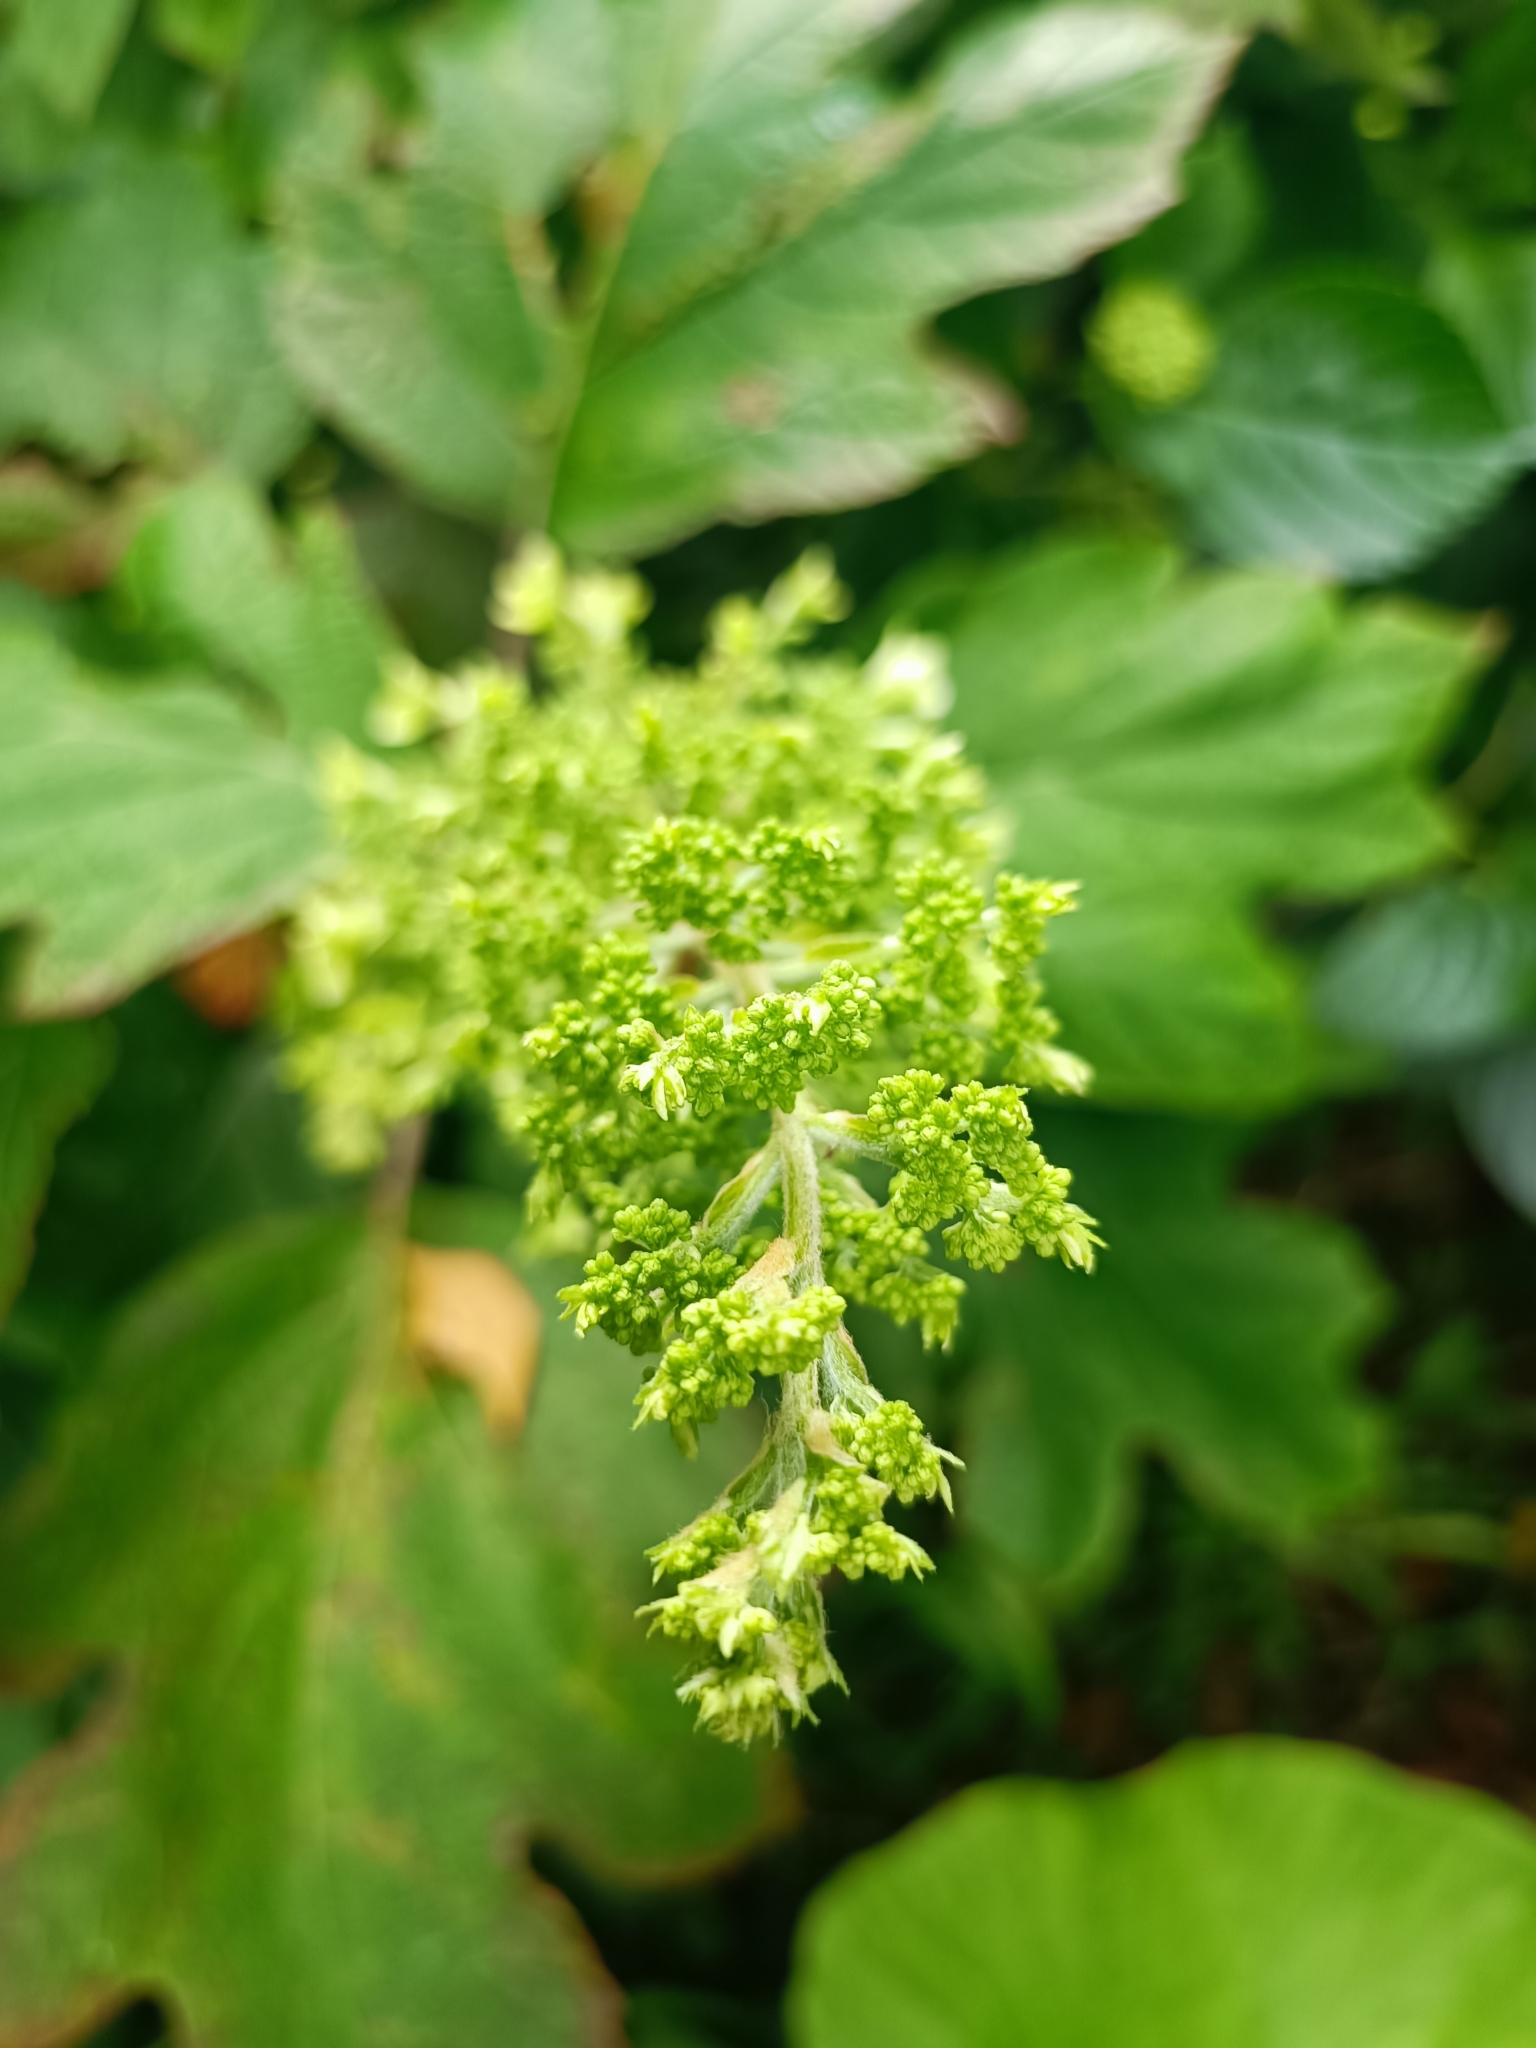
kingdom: Plantae
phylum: Tracheophyta
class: Magnoliopsida
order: Cornales
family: Hydrangeaceae
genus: Hydrangea
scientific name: Hydrangea quercifolia
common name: Oak-leaf hydrangea
